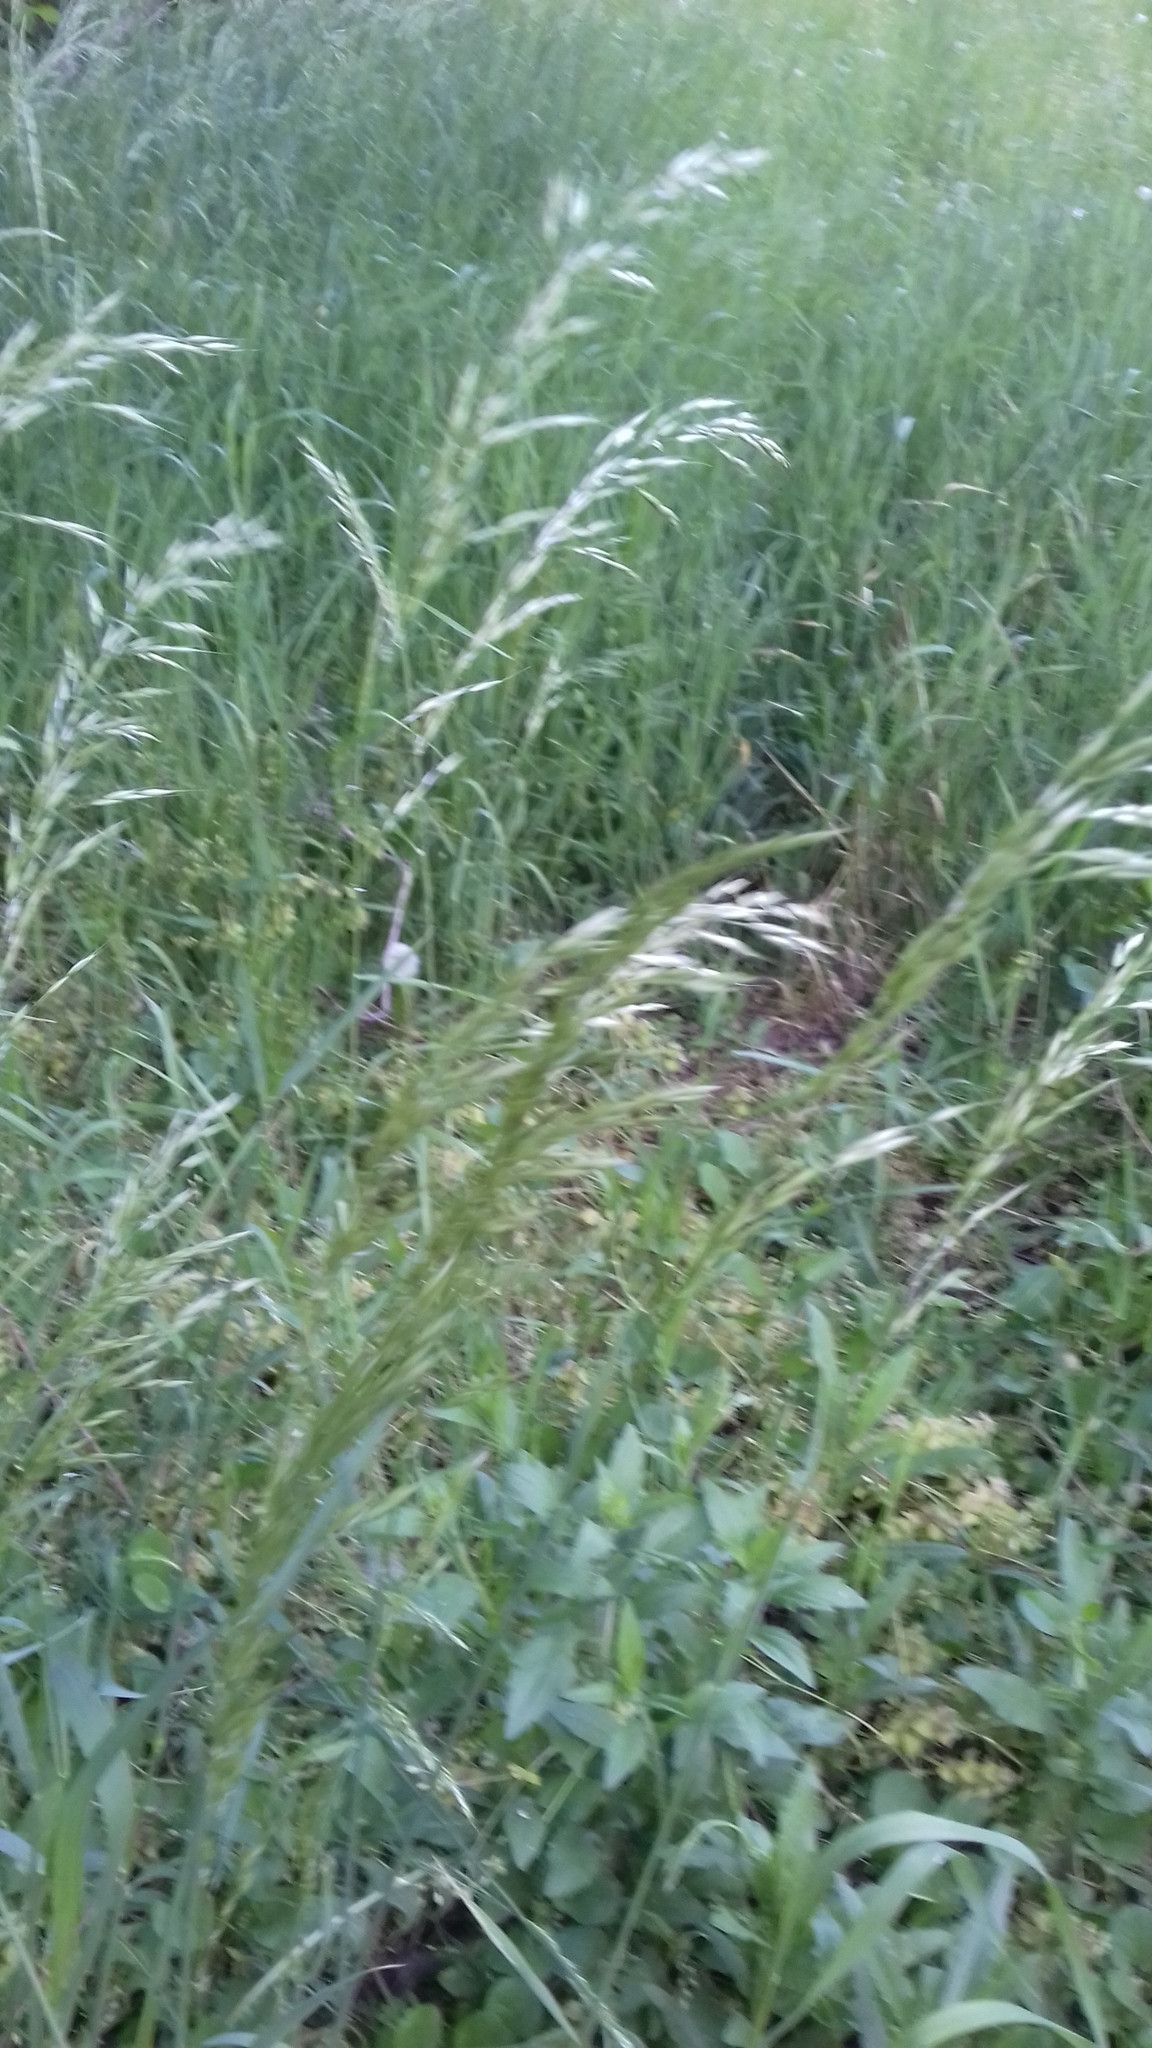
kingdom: Plantae
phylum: Tracheophyta
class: Liliopsida
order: Poales
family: Poaceae
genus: Arrhenatherum
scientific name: Arrhenatherum elatius
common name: Tall oatgrass
